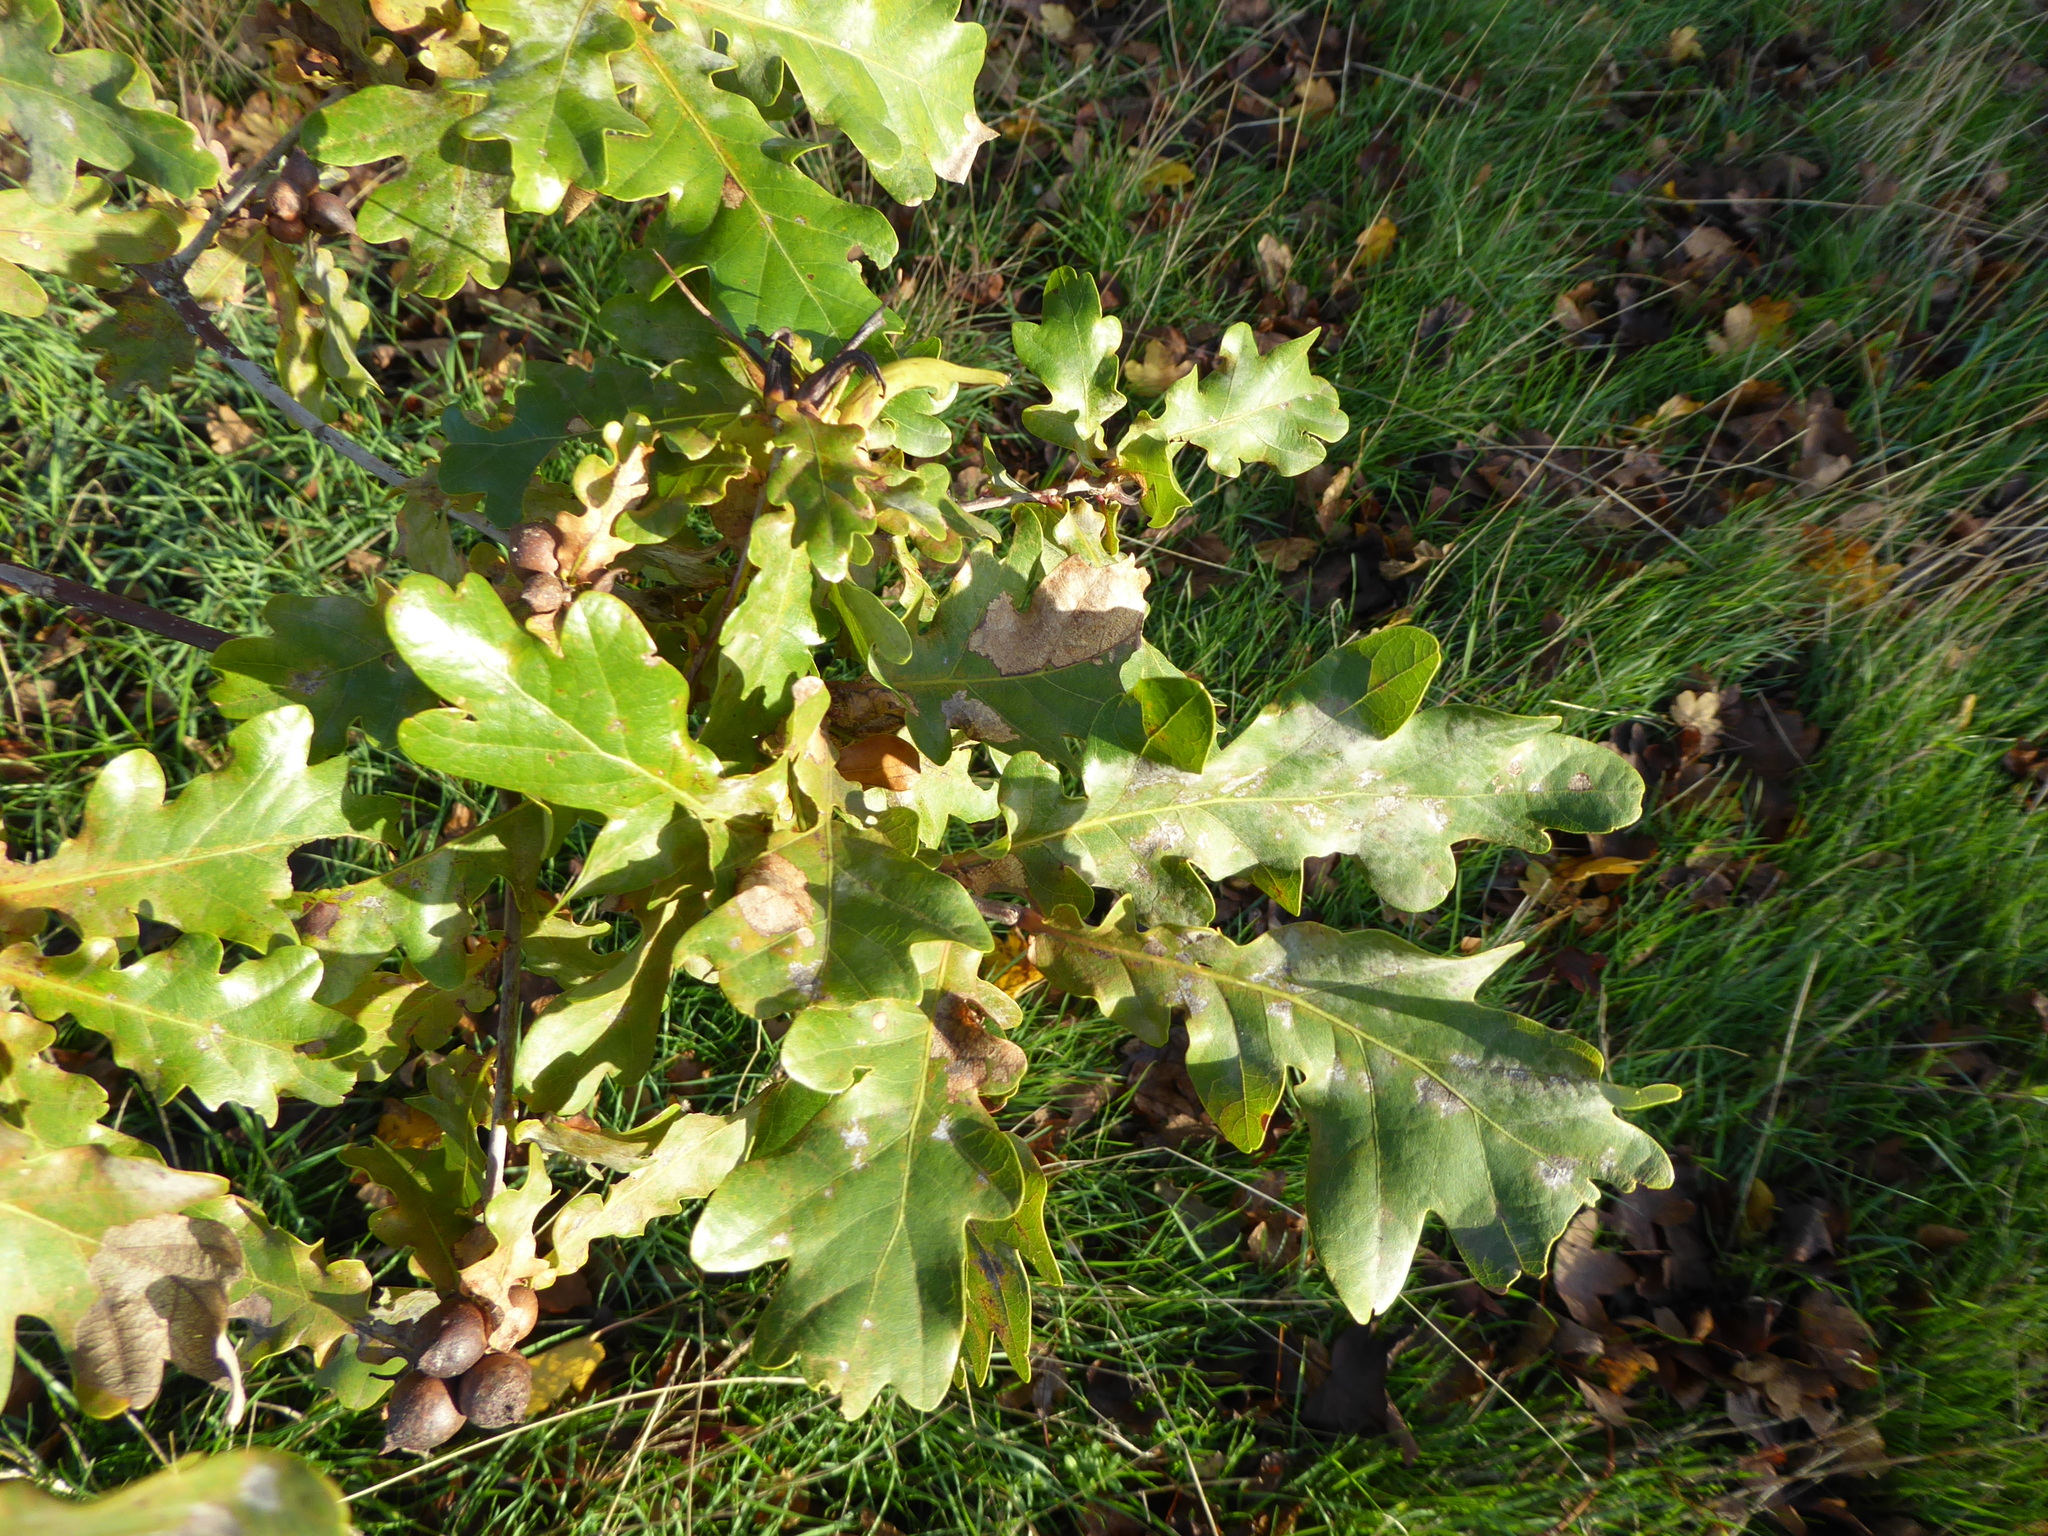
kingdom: Plantae
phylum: Tracheophyta
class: Magnoliopsida
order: Fagales
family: Fagaceae
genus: Quercus
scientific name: Quercus robur
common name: Pedunculate oak
